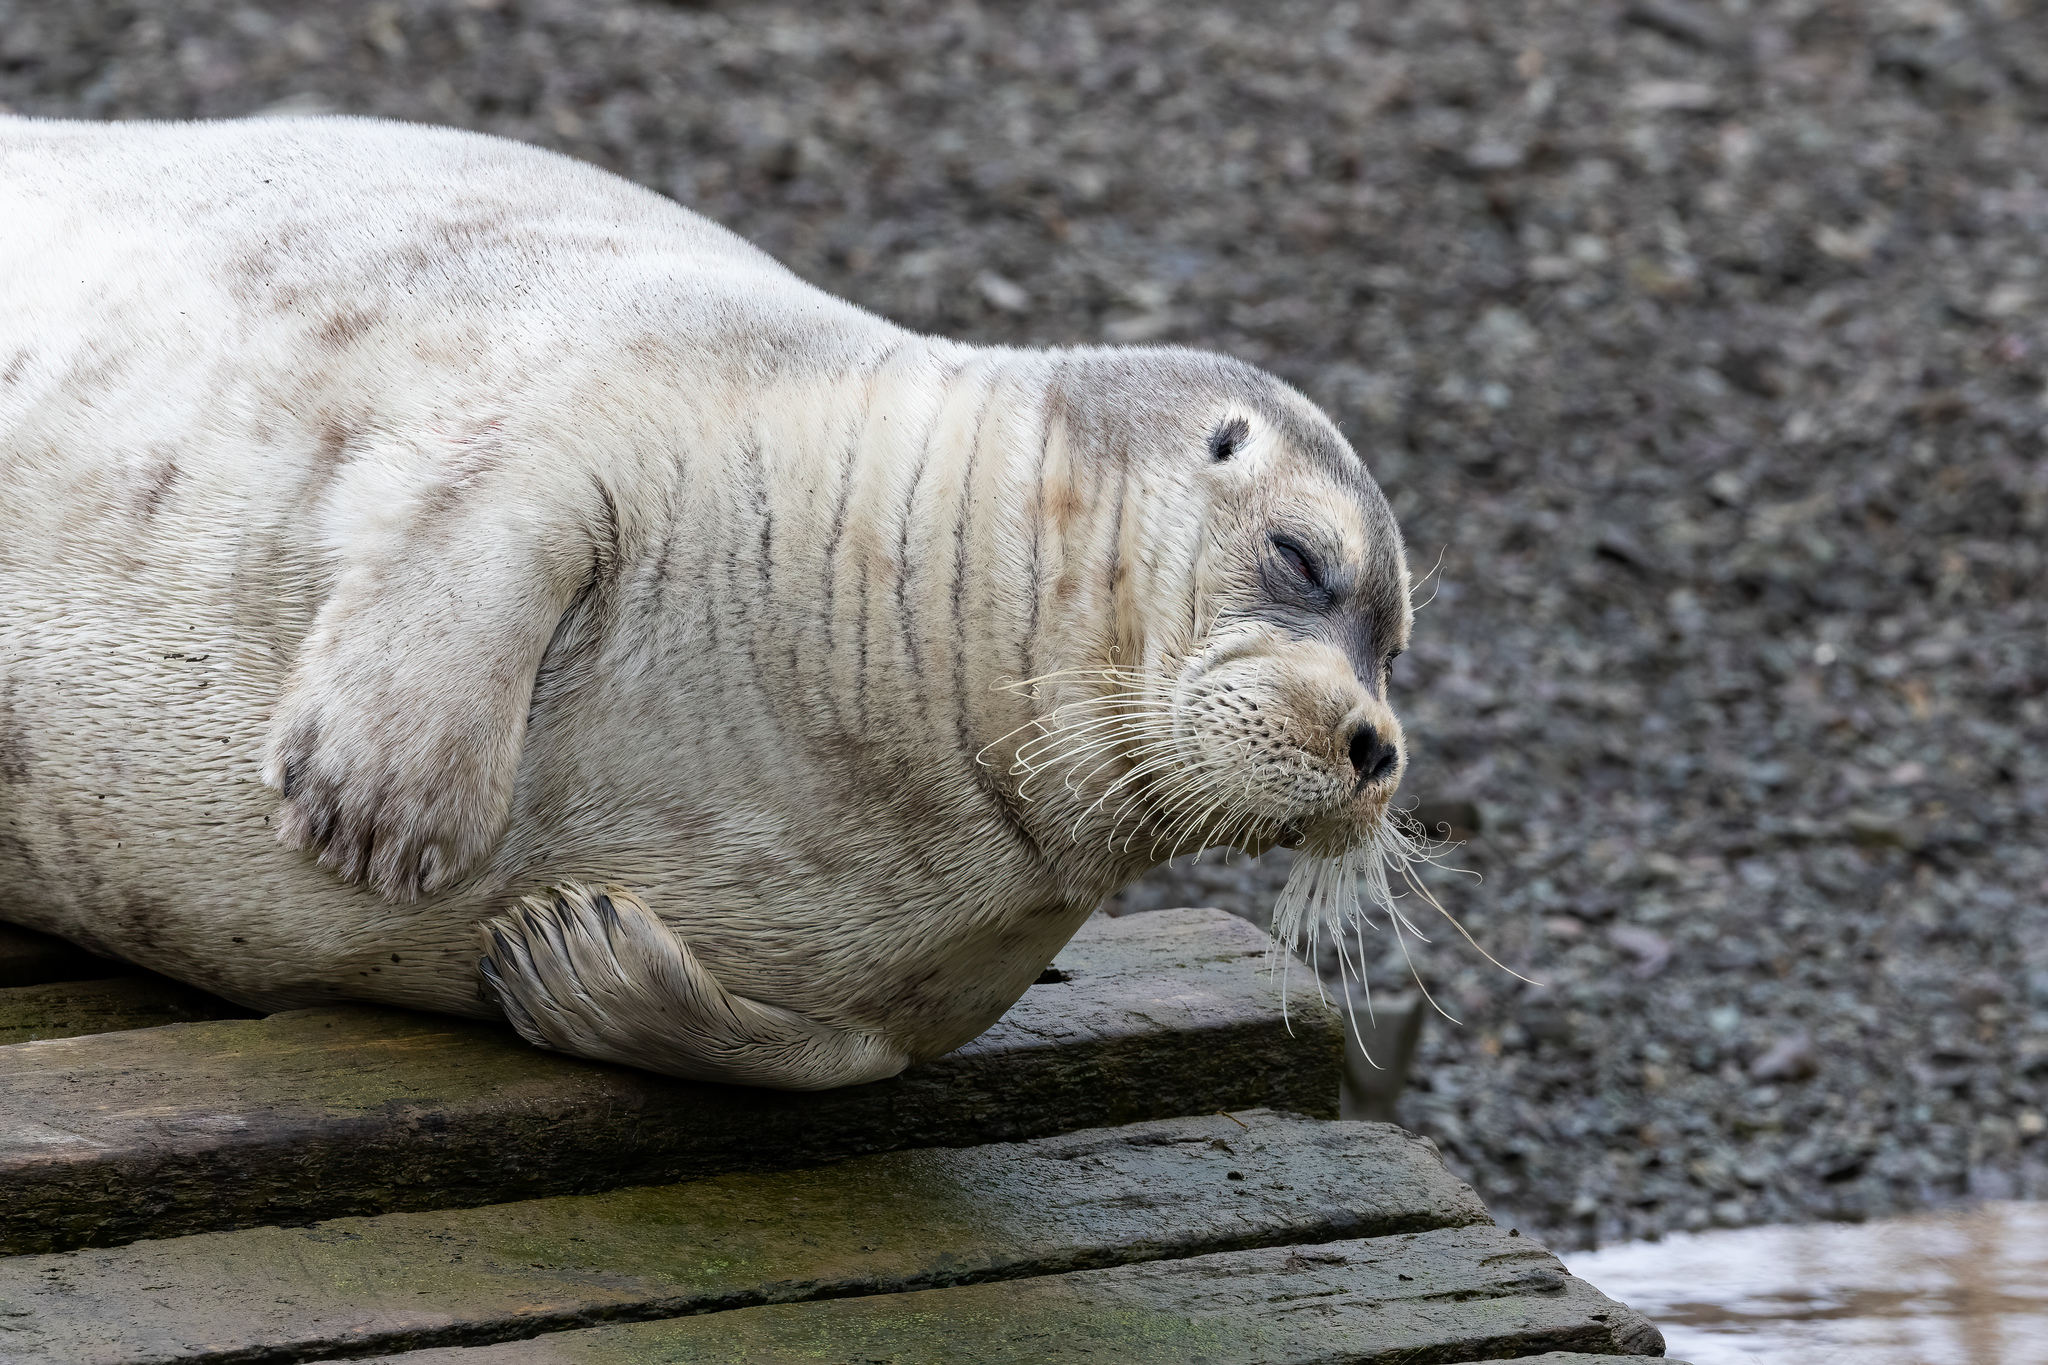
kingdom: Animalia
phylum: Chordata
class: Mammalia
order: Carnivora
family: Phocidae
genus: Erignathus
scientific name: Erignathus barbatus
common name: Bearded seal
